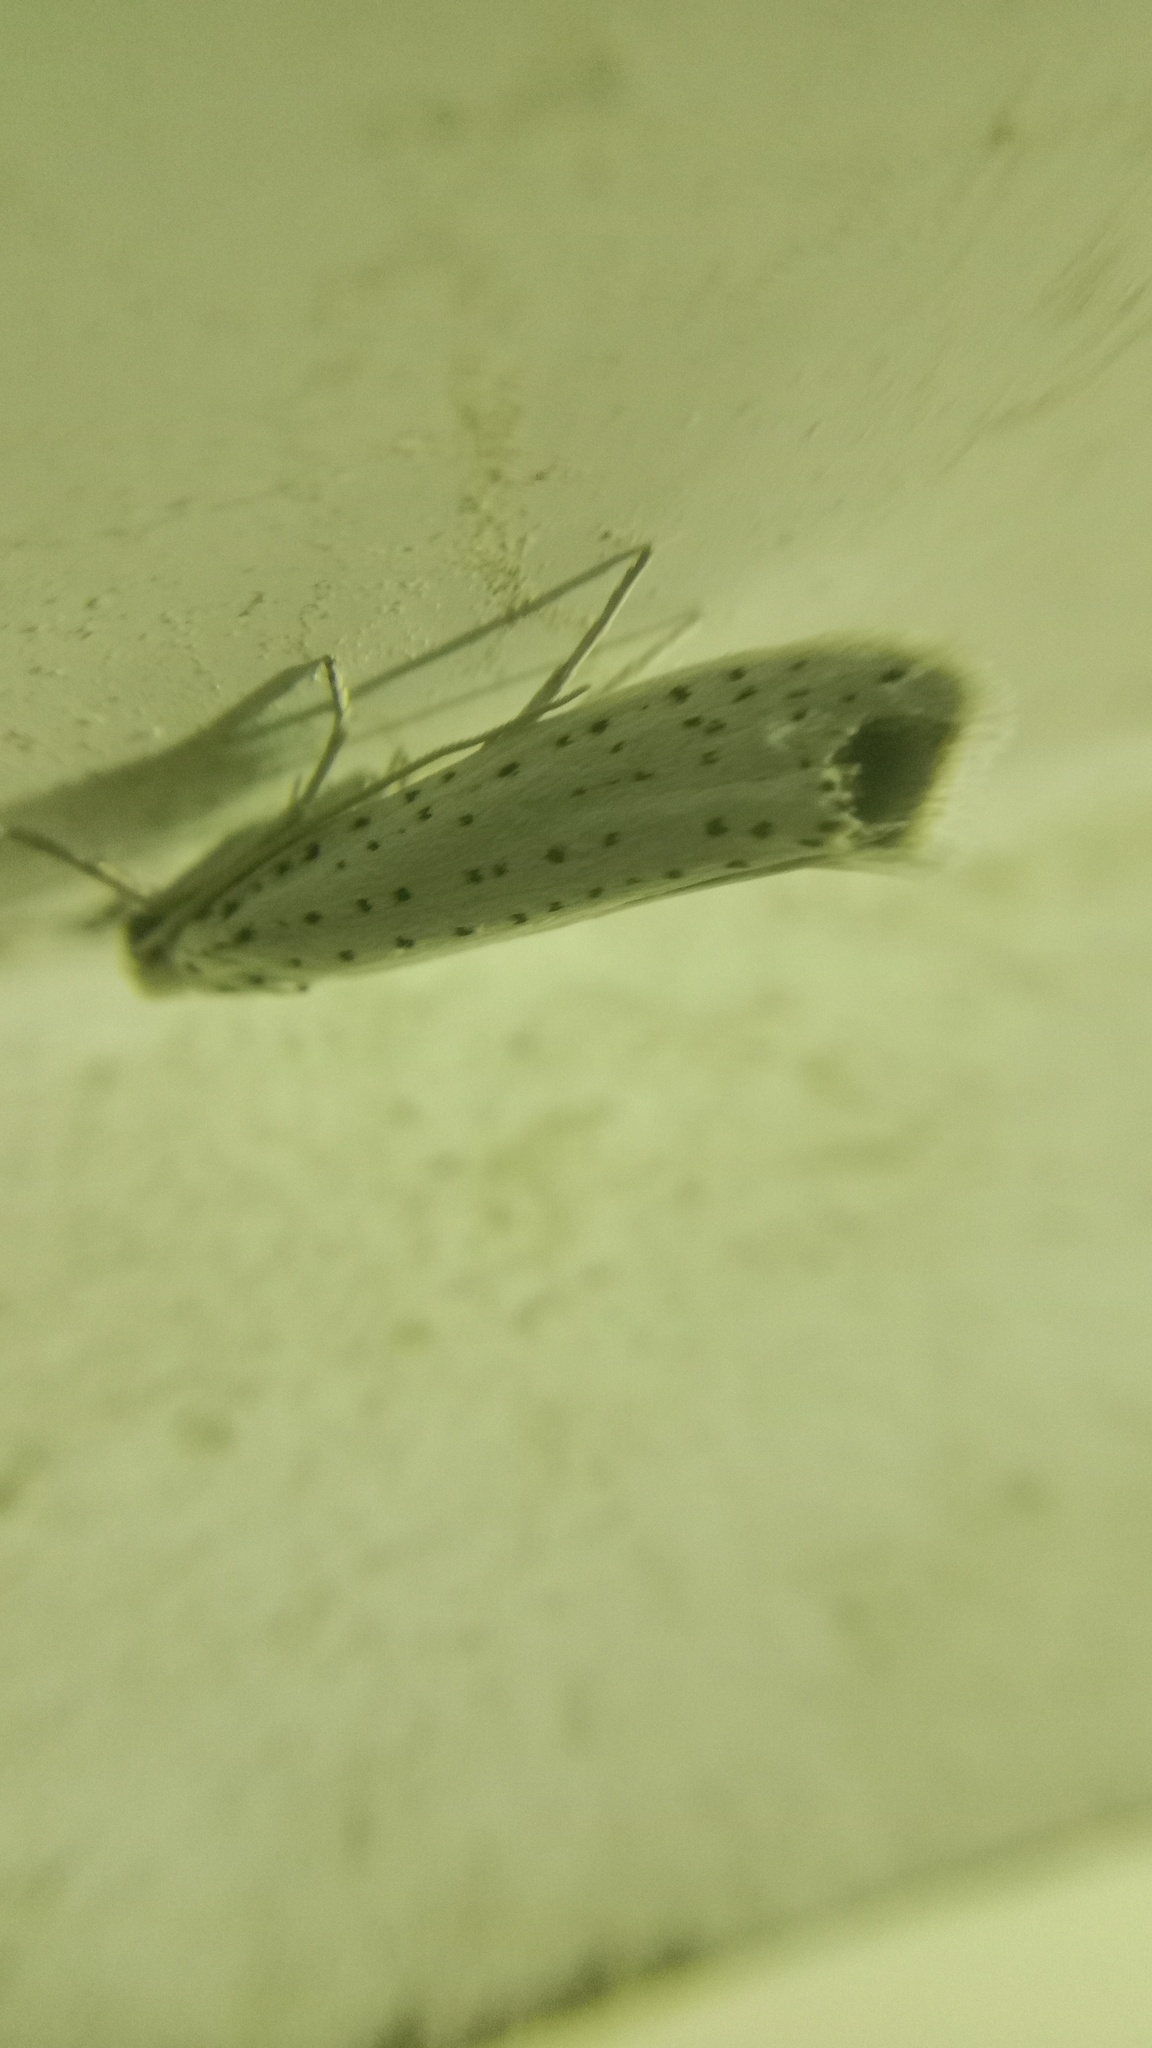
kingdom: Animalia
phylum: Arthropoda
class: Insecta
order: Lepidoptera
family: Yponomeutidae
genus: Yponomeuta
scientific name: Yponomeuta evonymella
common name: Bird-cherry ermine
